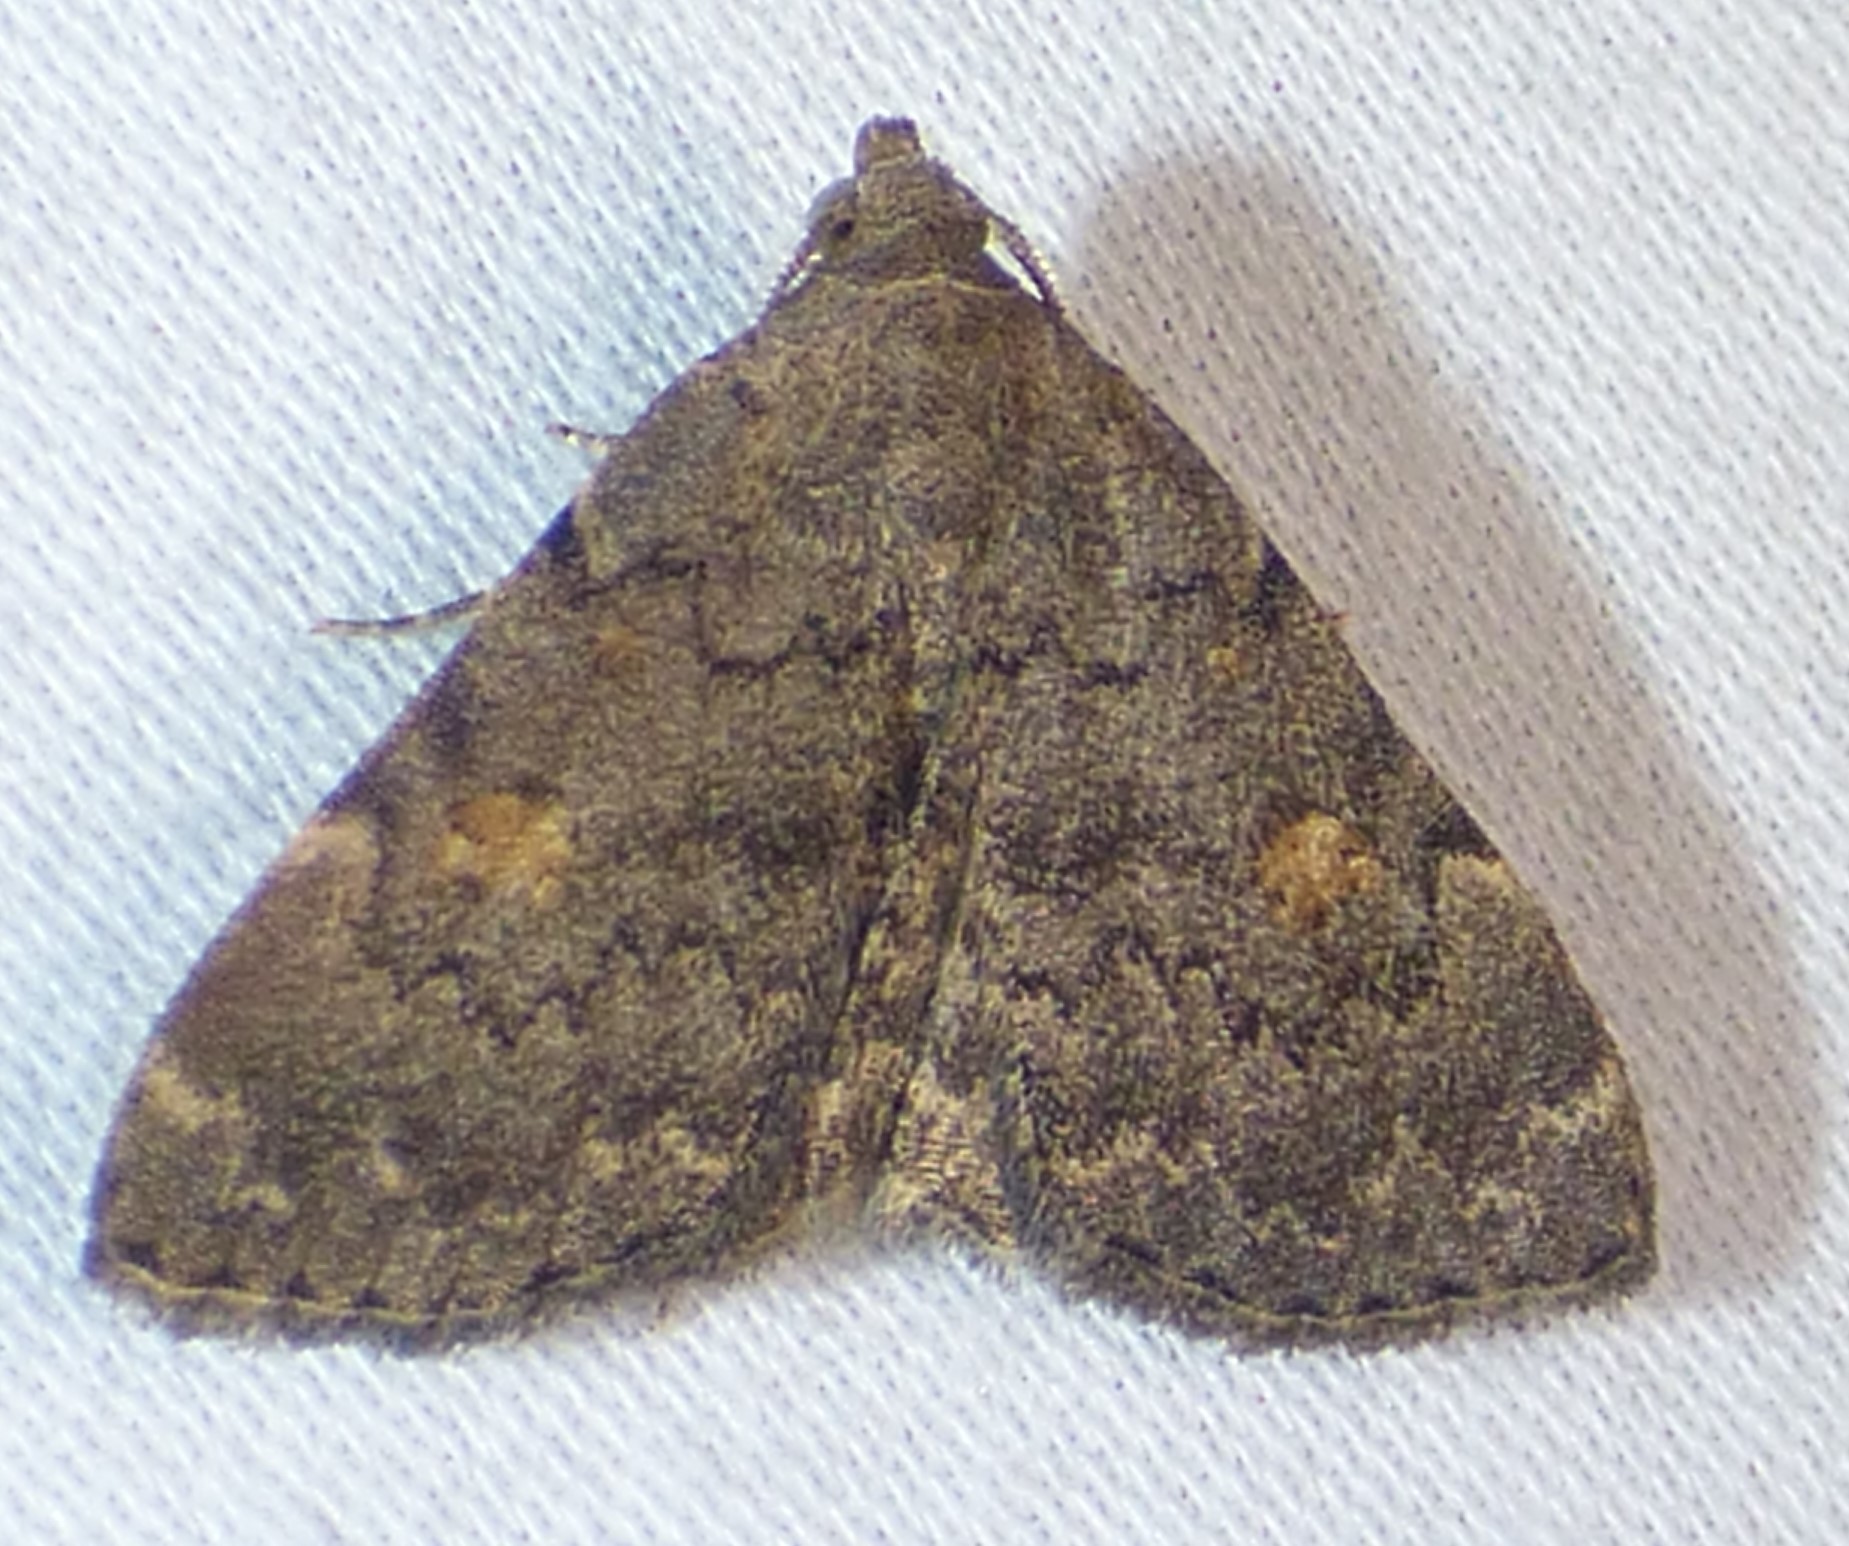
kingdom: Animalia
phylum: Arthropoda
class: Insecta
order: Lepidoptera
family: Erebidae
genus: Idia
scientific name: Idia aemula
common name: Common idia moth
